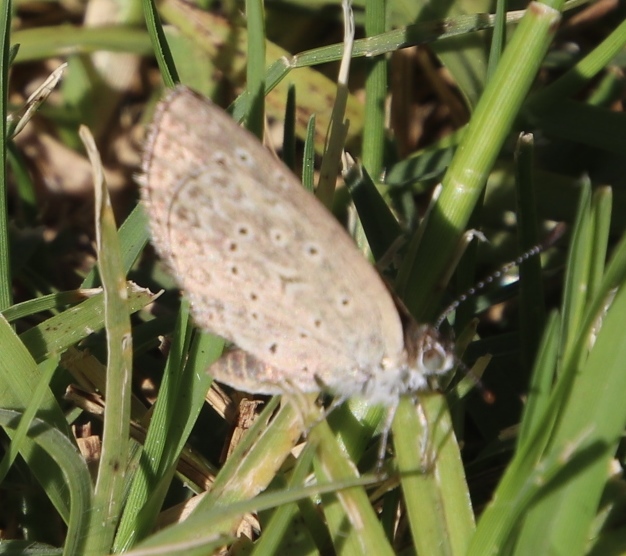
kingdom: Animalia
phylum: Arthropoda
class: Insecta
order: Lepidoptera
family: Lycaenidae
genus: Zizeeria
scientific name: Zizeeria knysna
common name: African grass blue
